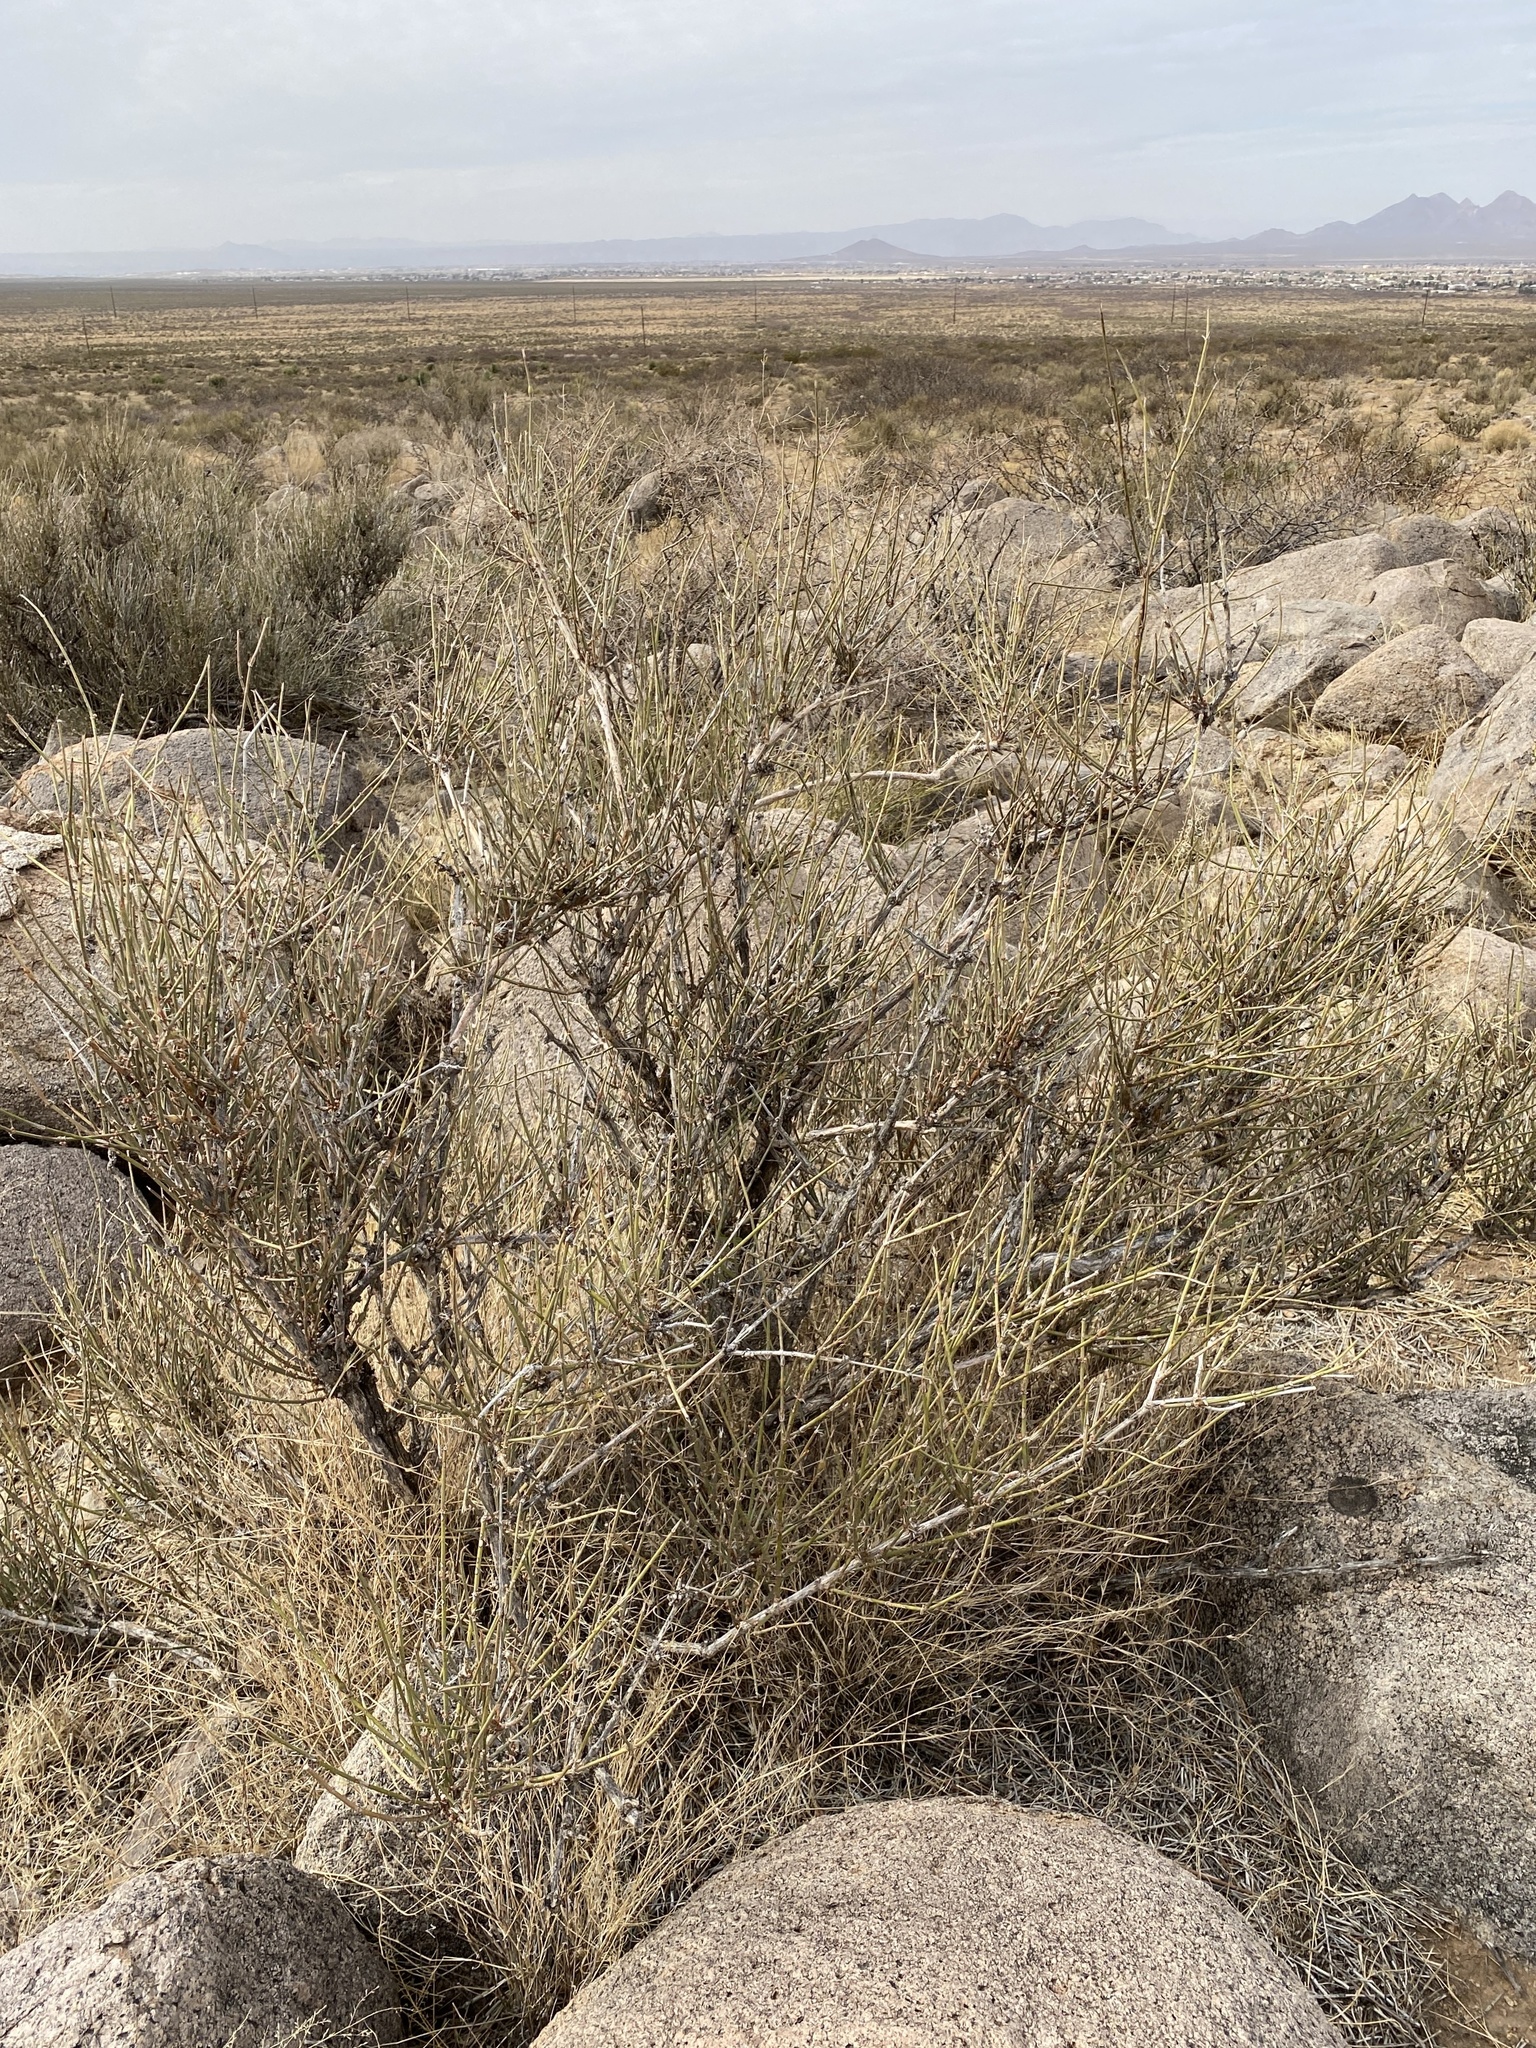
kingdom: Plantae
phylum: Tracheophyta
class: Gnetopsida
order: Ephedrales
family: Ephedraceae
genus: Ephedra
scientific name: Ephedra trifurca
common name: Mexican-tea
